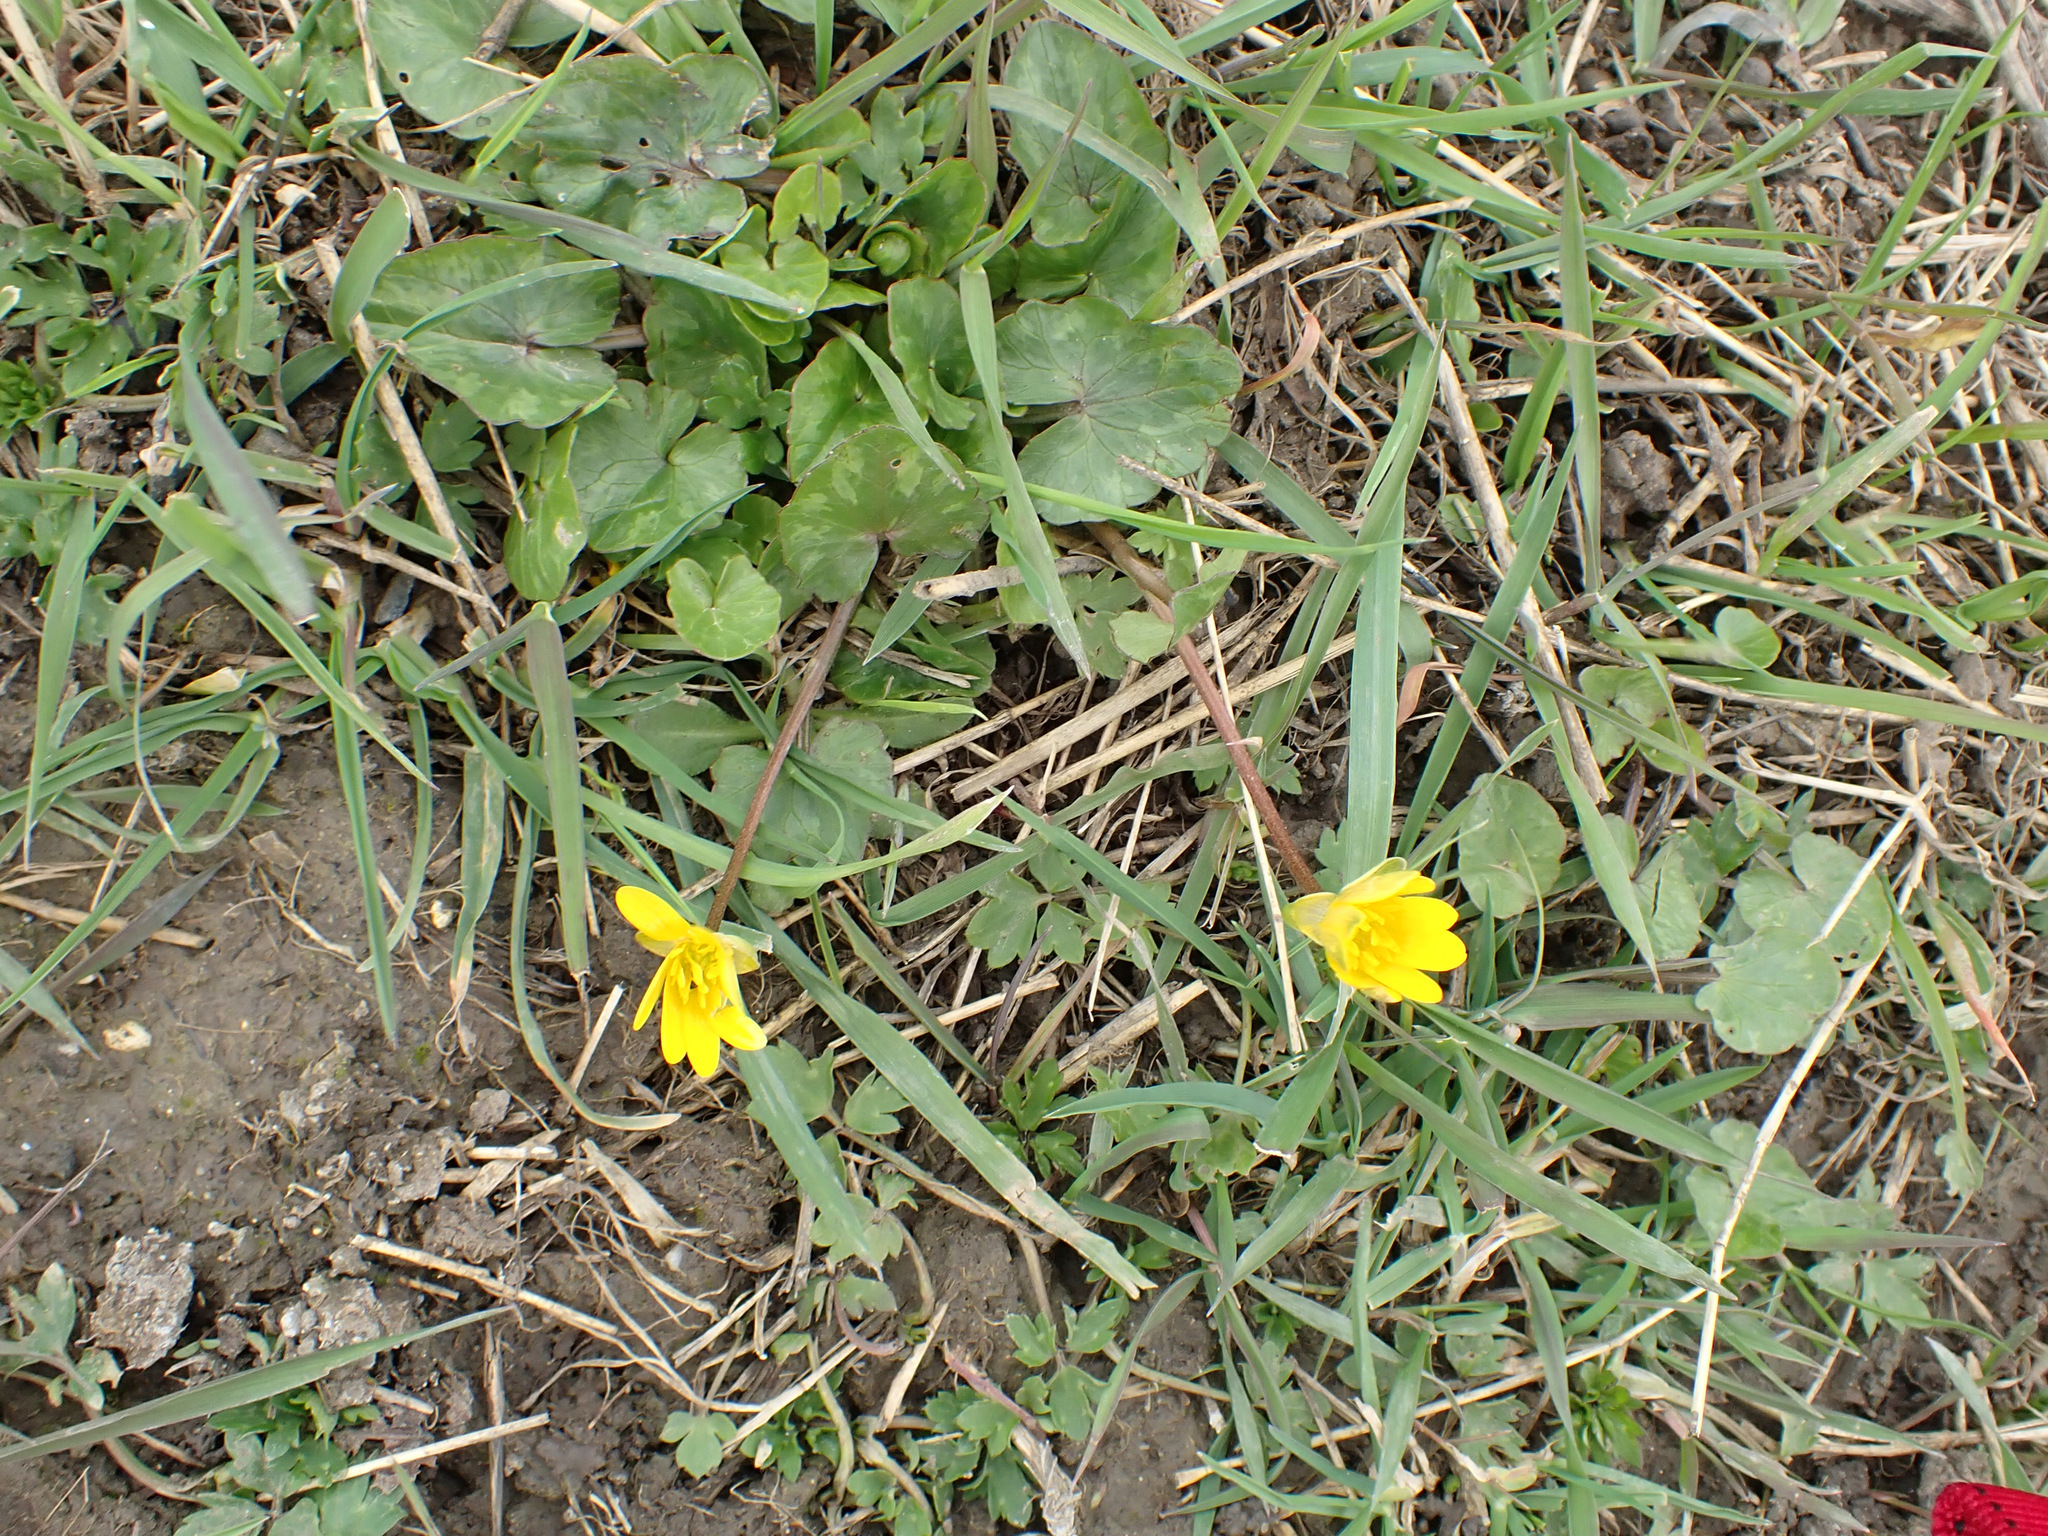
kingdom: Plantae
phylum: Tracheophyta
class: Magnoliopsida
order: Ranunculales
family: Ranunculaceae
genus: Ficaria
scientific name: Ficaria verna
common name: Lesser celandine
